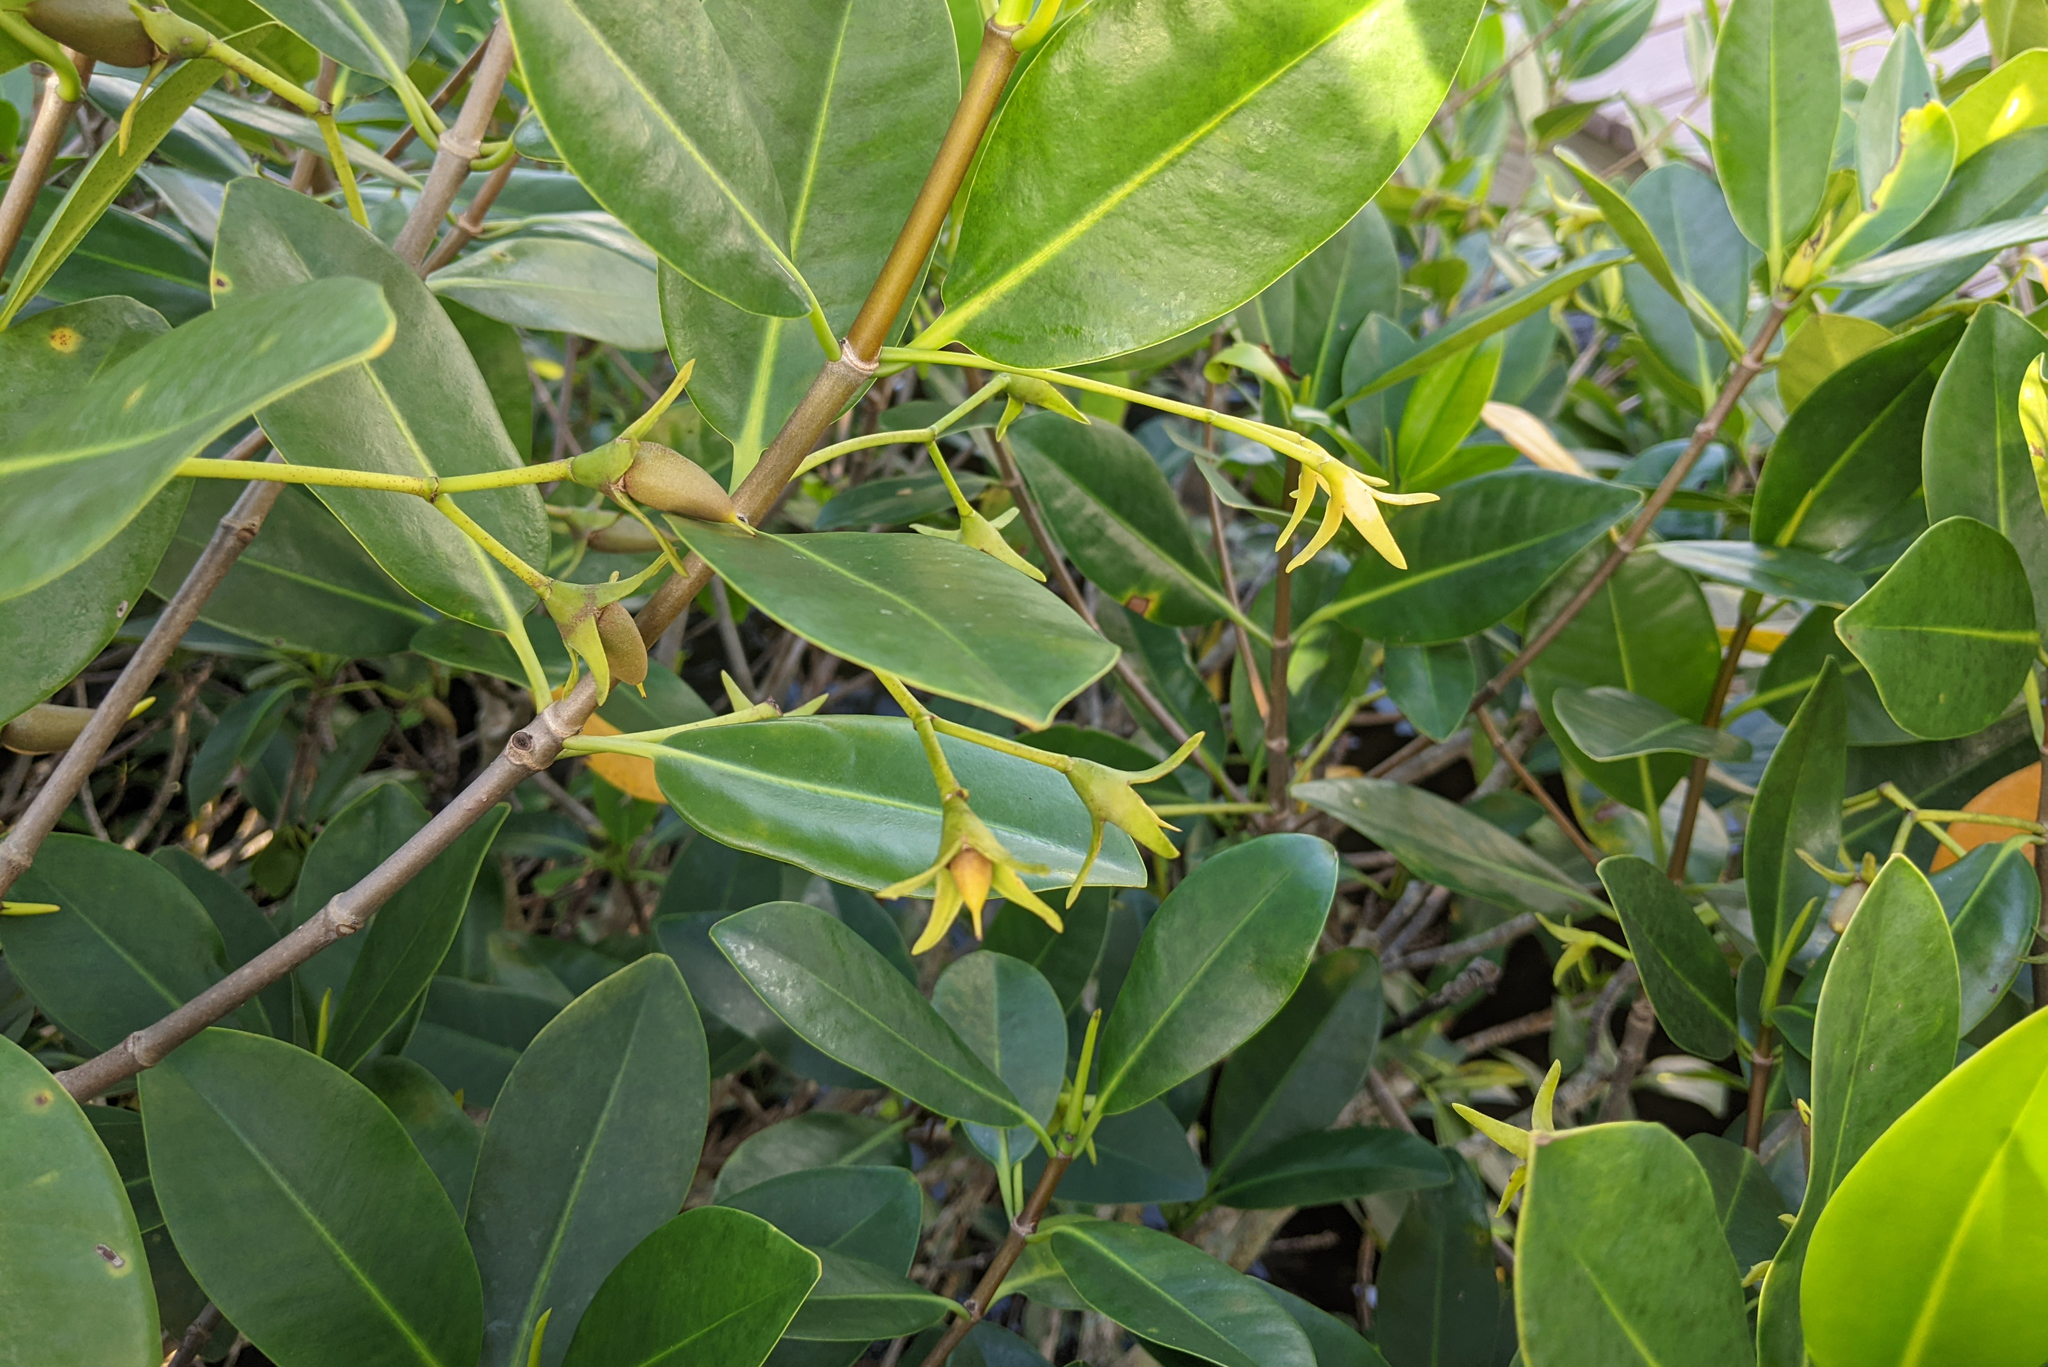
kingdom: Plantae
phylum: Tracheophyta
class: Magnoliopsida
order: Malpighiales
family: Rhizophoraceae
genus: Rhizophora
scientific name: Rhizophora mangle
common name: Red mangrove
